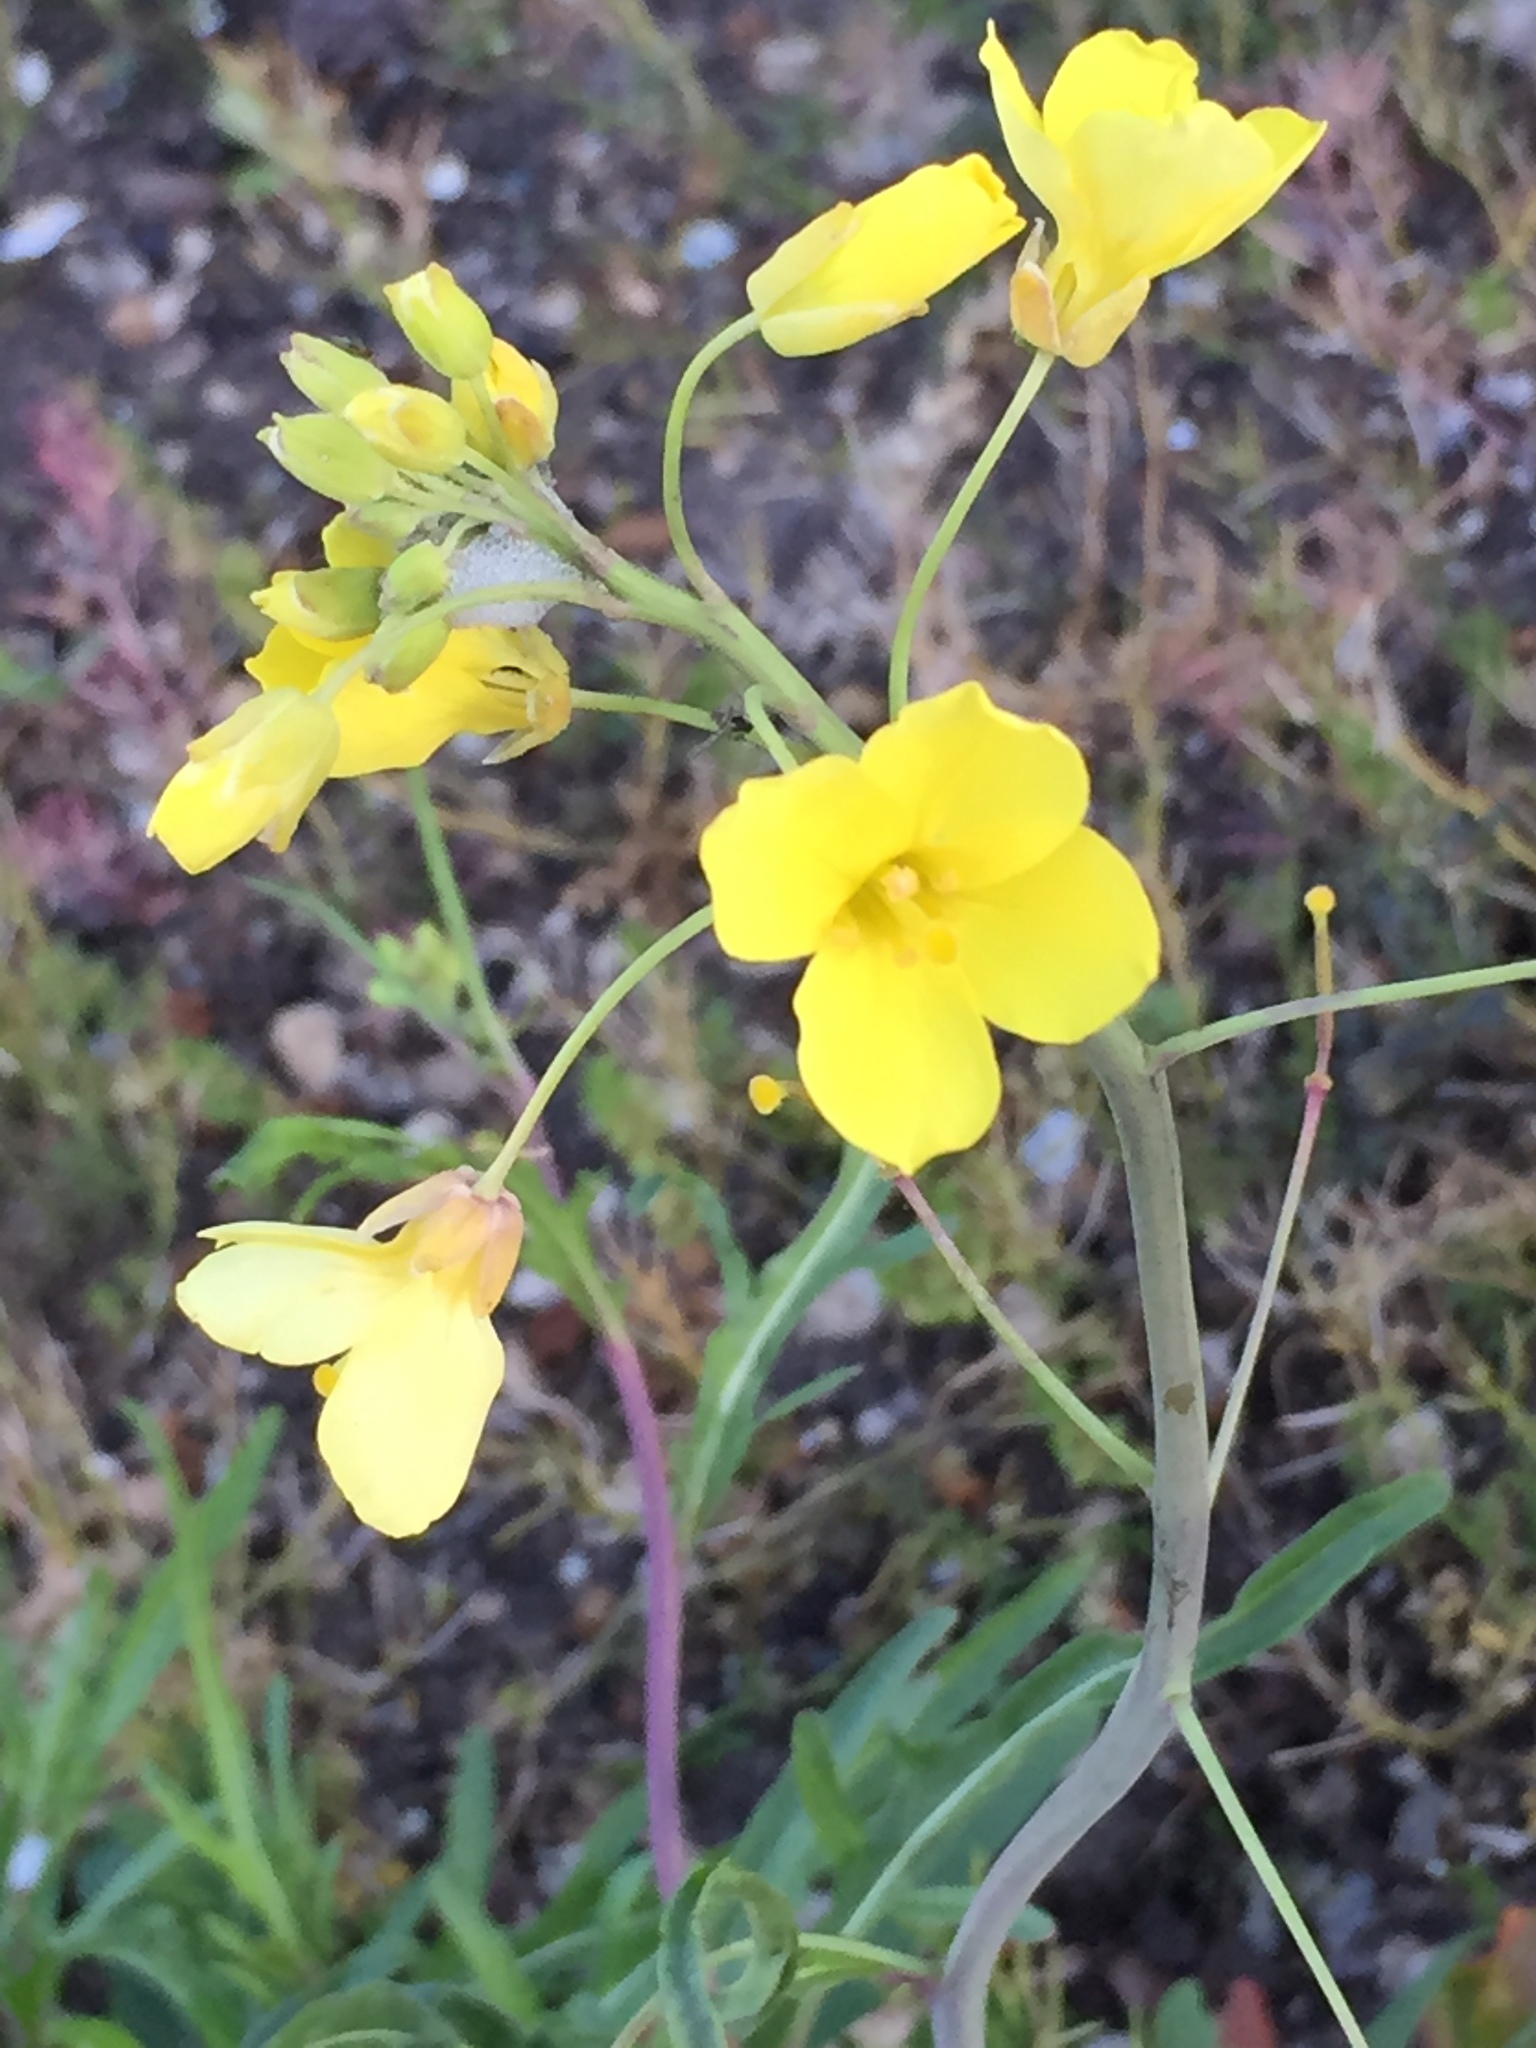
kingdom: Plantae
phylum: Tracheophyta
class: Magnoliopsida
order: Brassicales
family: Brassicaceae
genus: Diplotaxis
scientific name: Diplotaxis tenuifolia
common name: Perennial wall-rocket
